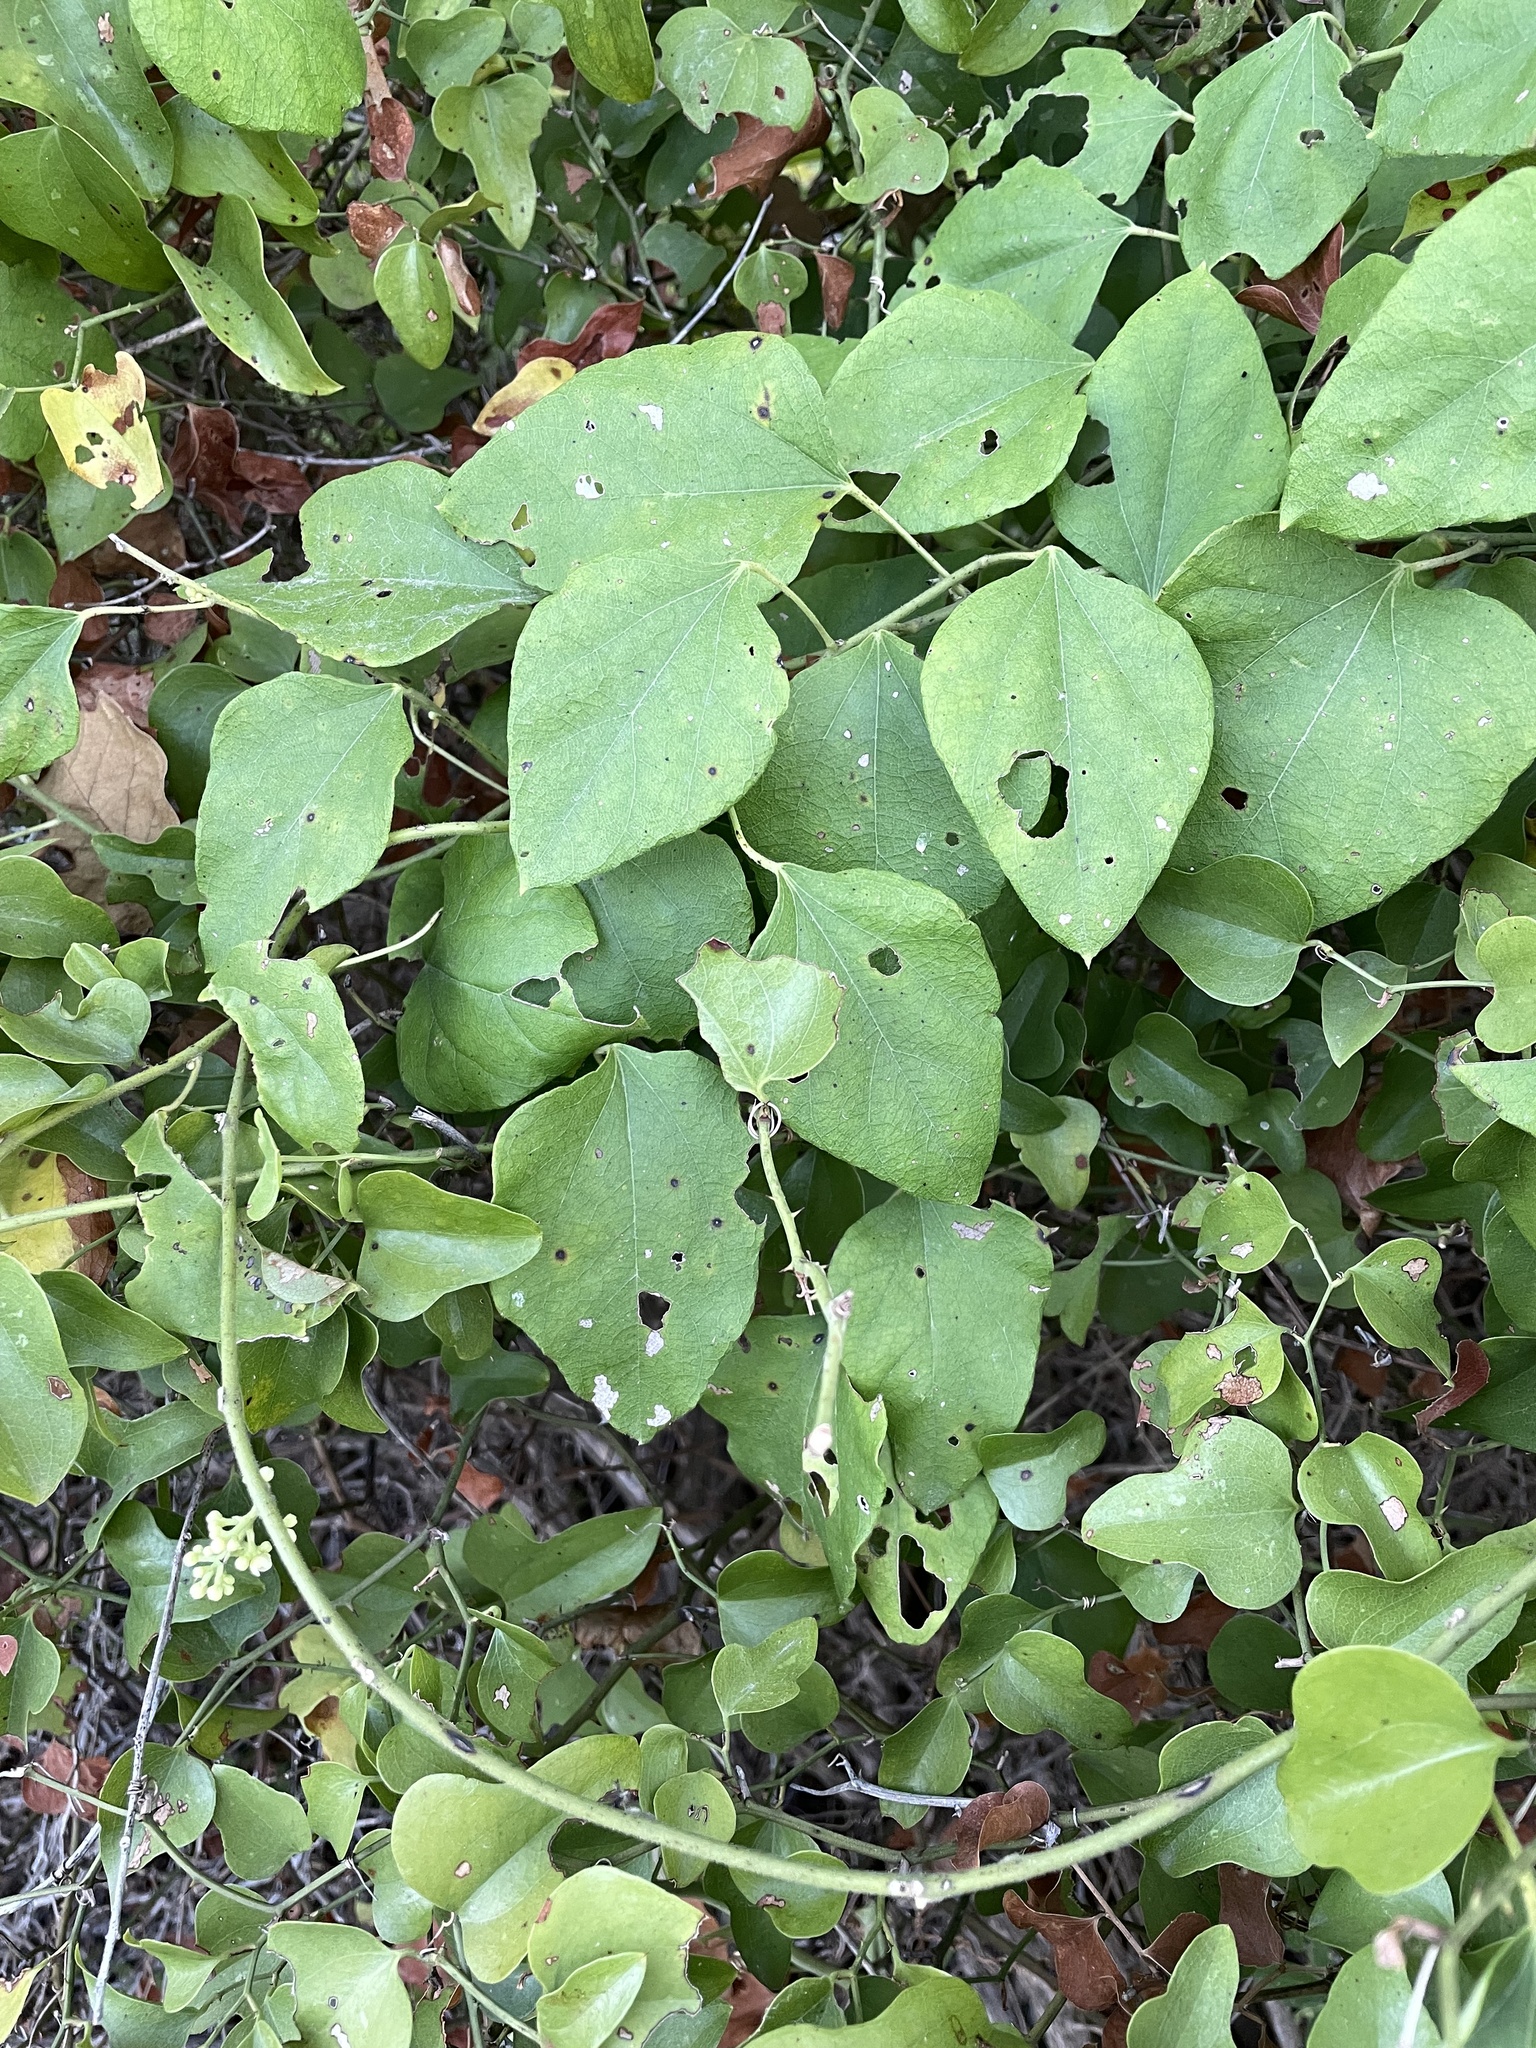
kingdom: Plantae
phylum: Tracheophyta
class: Magnoliopsida
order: Ranunculales
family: Menispermaceae
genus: Cocculus
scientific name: Cocculus carolinus
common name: Carolina moonseed
